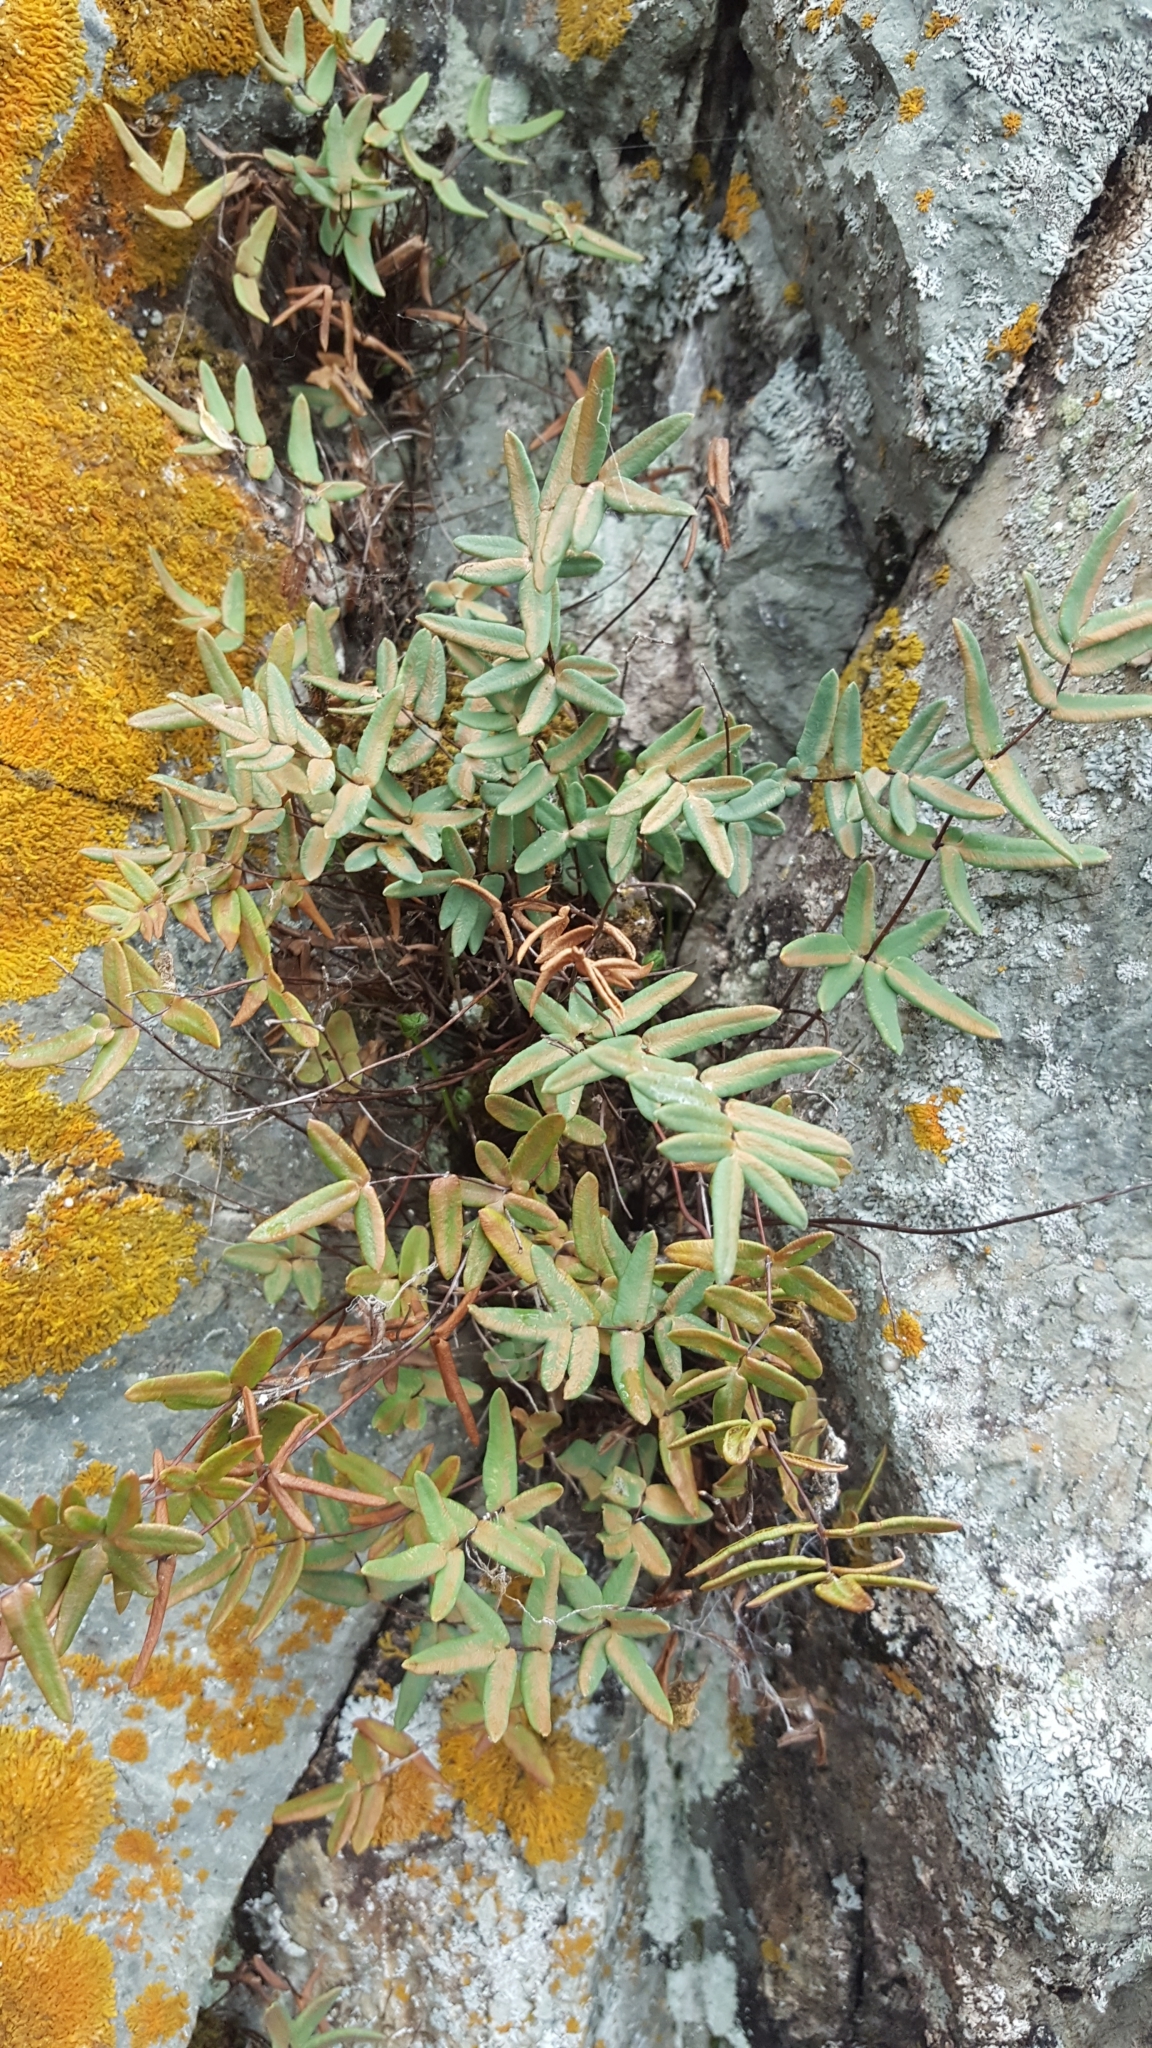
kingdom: Plantae
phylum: Tracheophyta
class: Polypodiopsida
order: Polypodiales
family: Pteridaceae
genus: Pellaea
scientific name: Pellaea glabella
